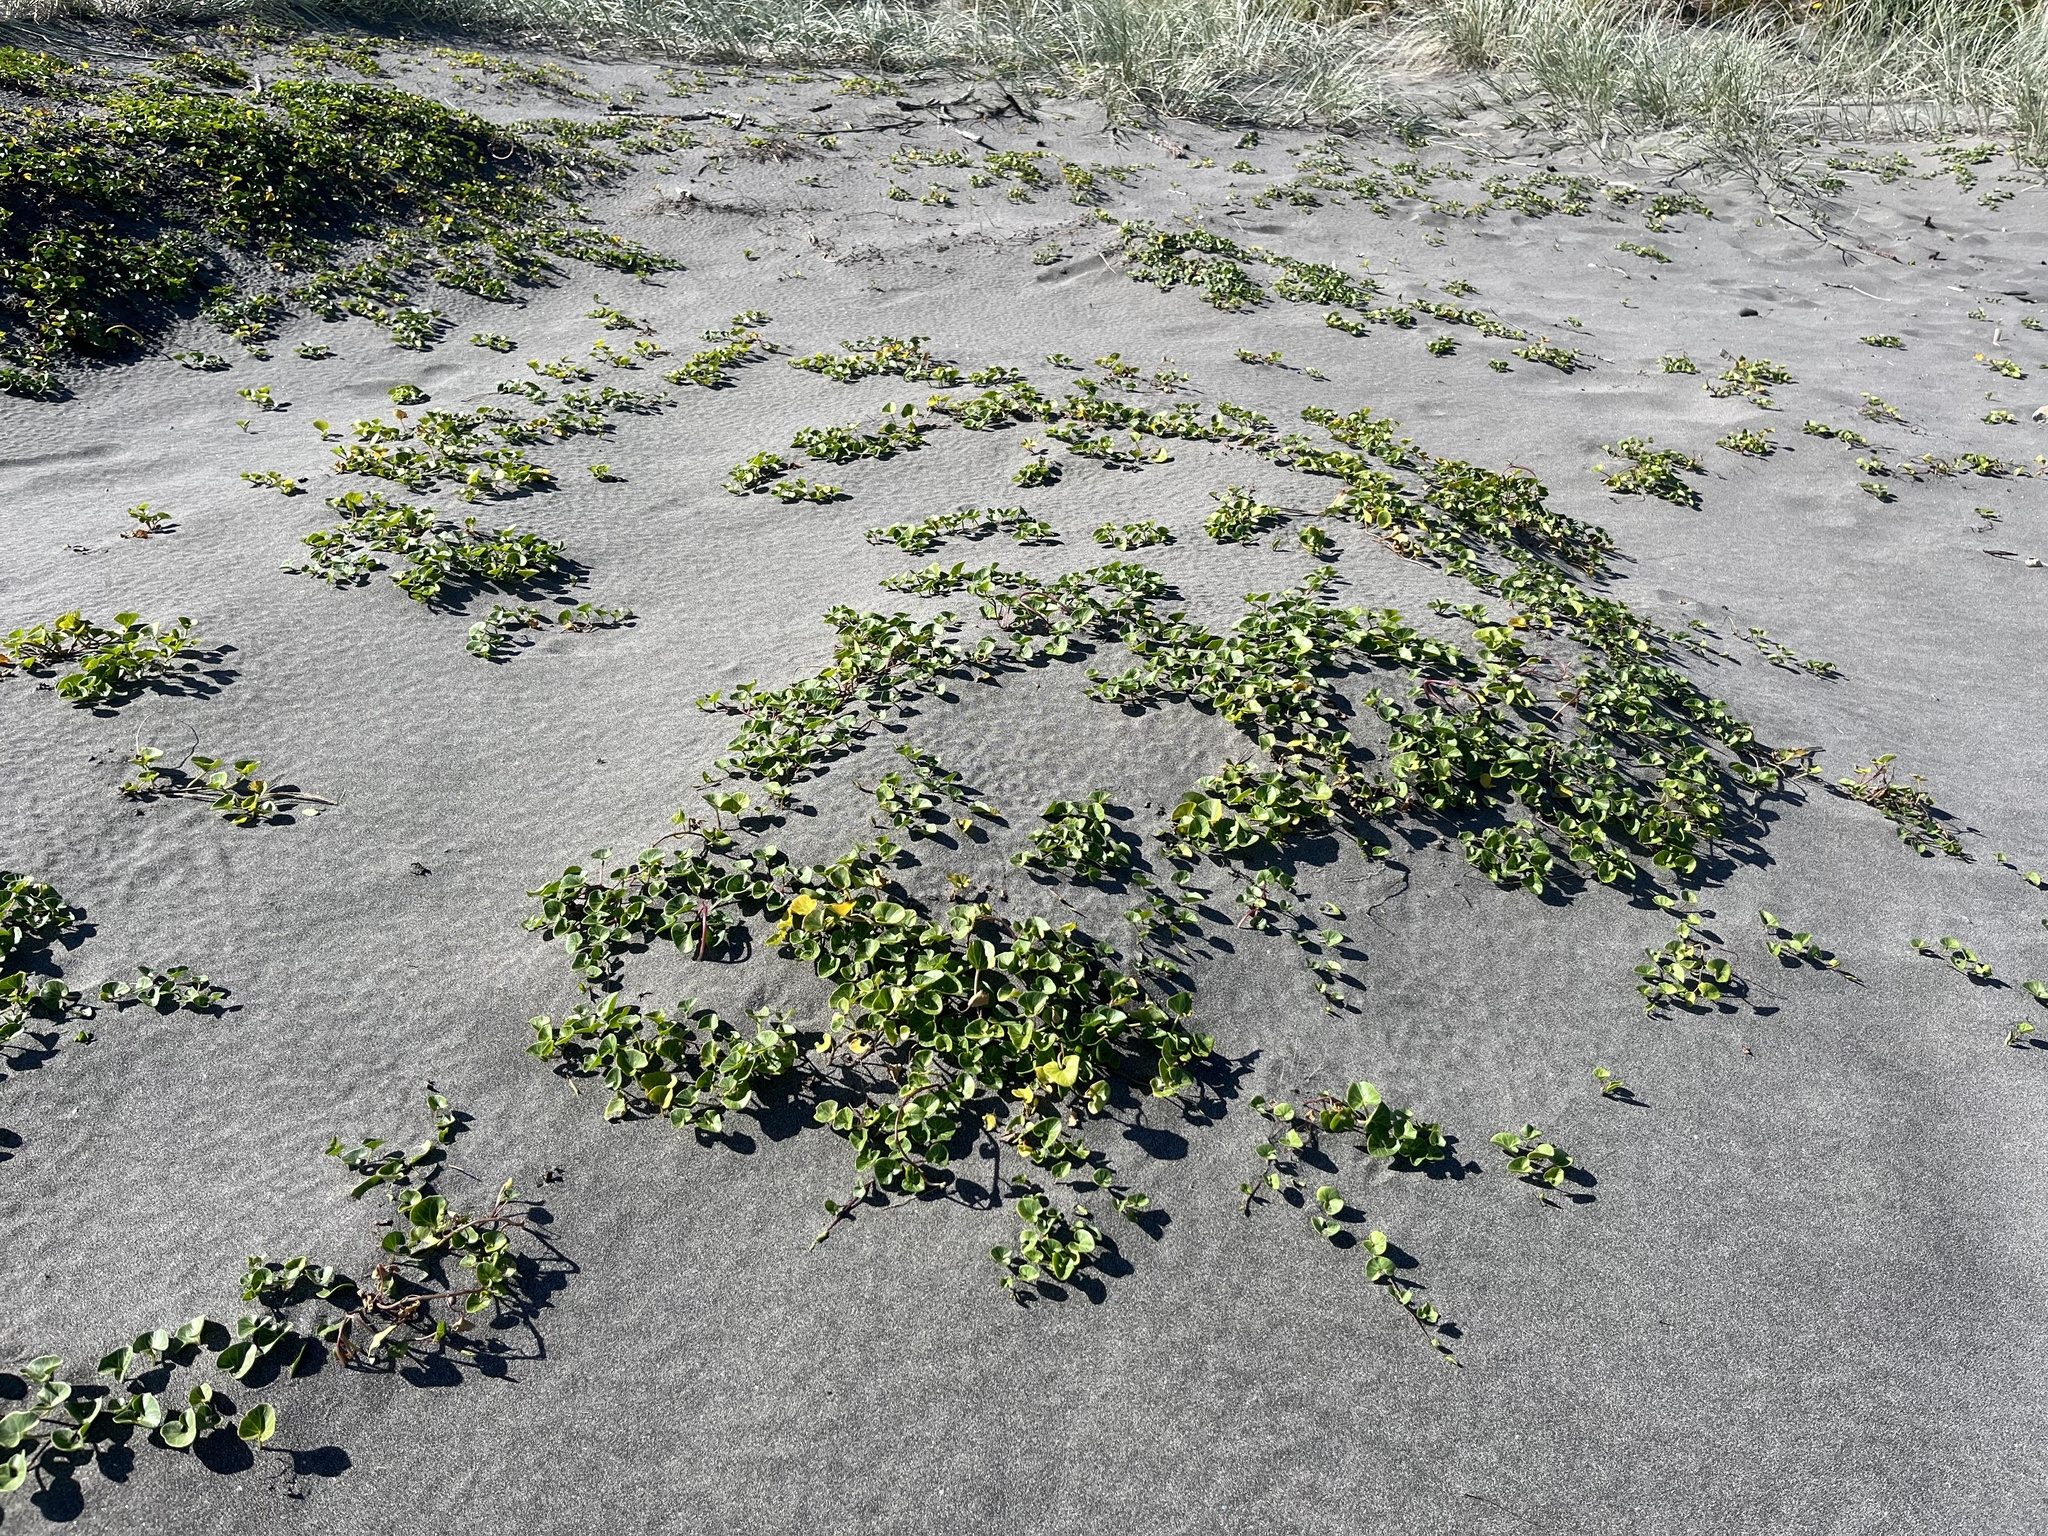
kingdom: Plantae
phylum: Tracheophyta
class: Magnoliopsida
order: Solanales
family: Convolvulaceae
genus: Calystegia
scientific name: Calystegia soldanella
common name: Sea bindweed
